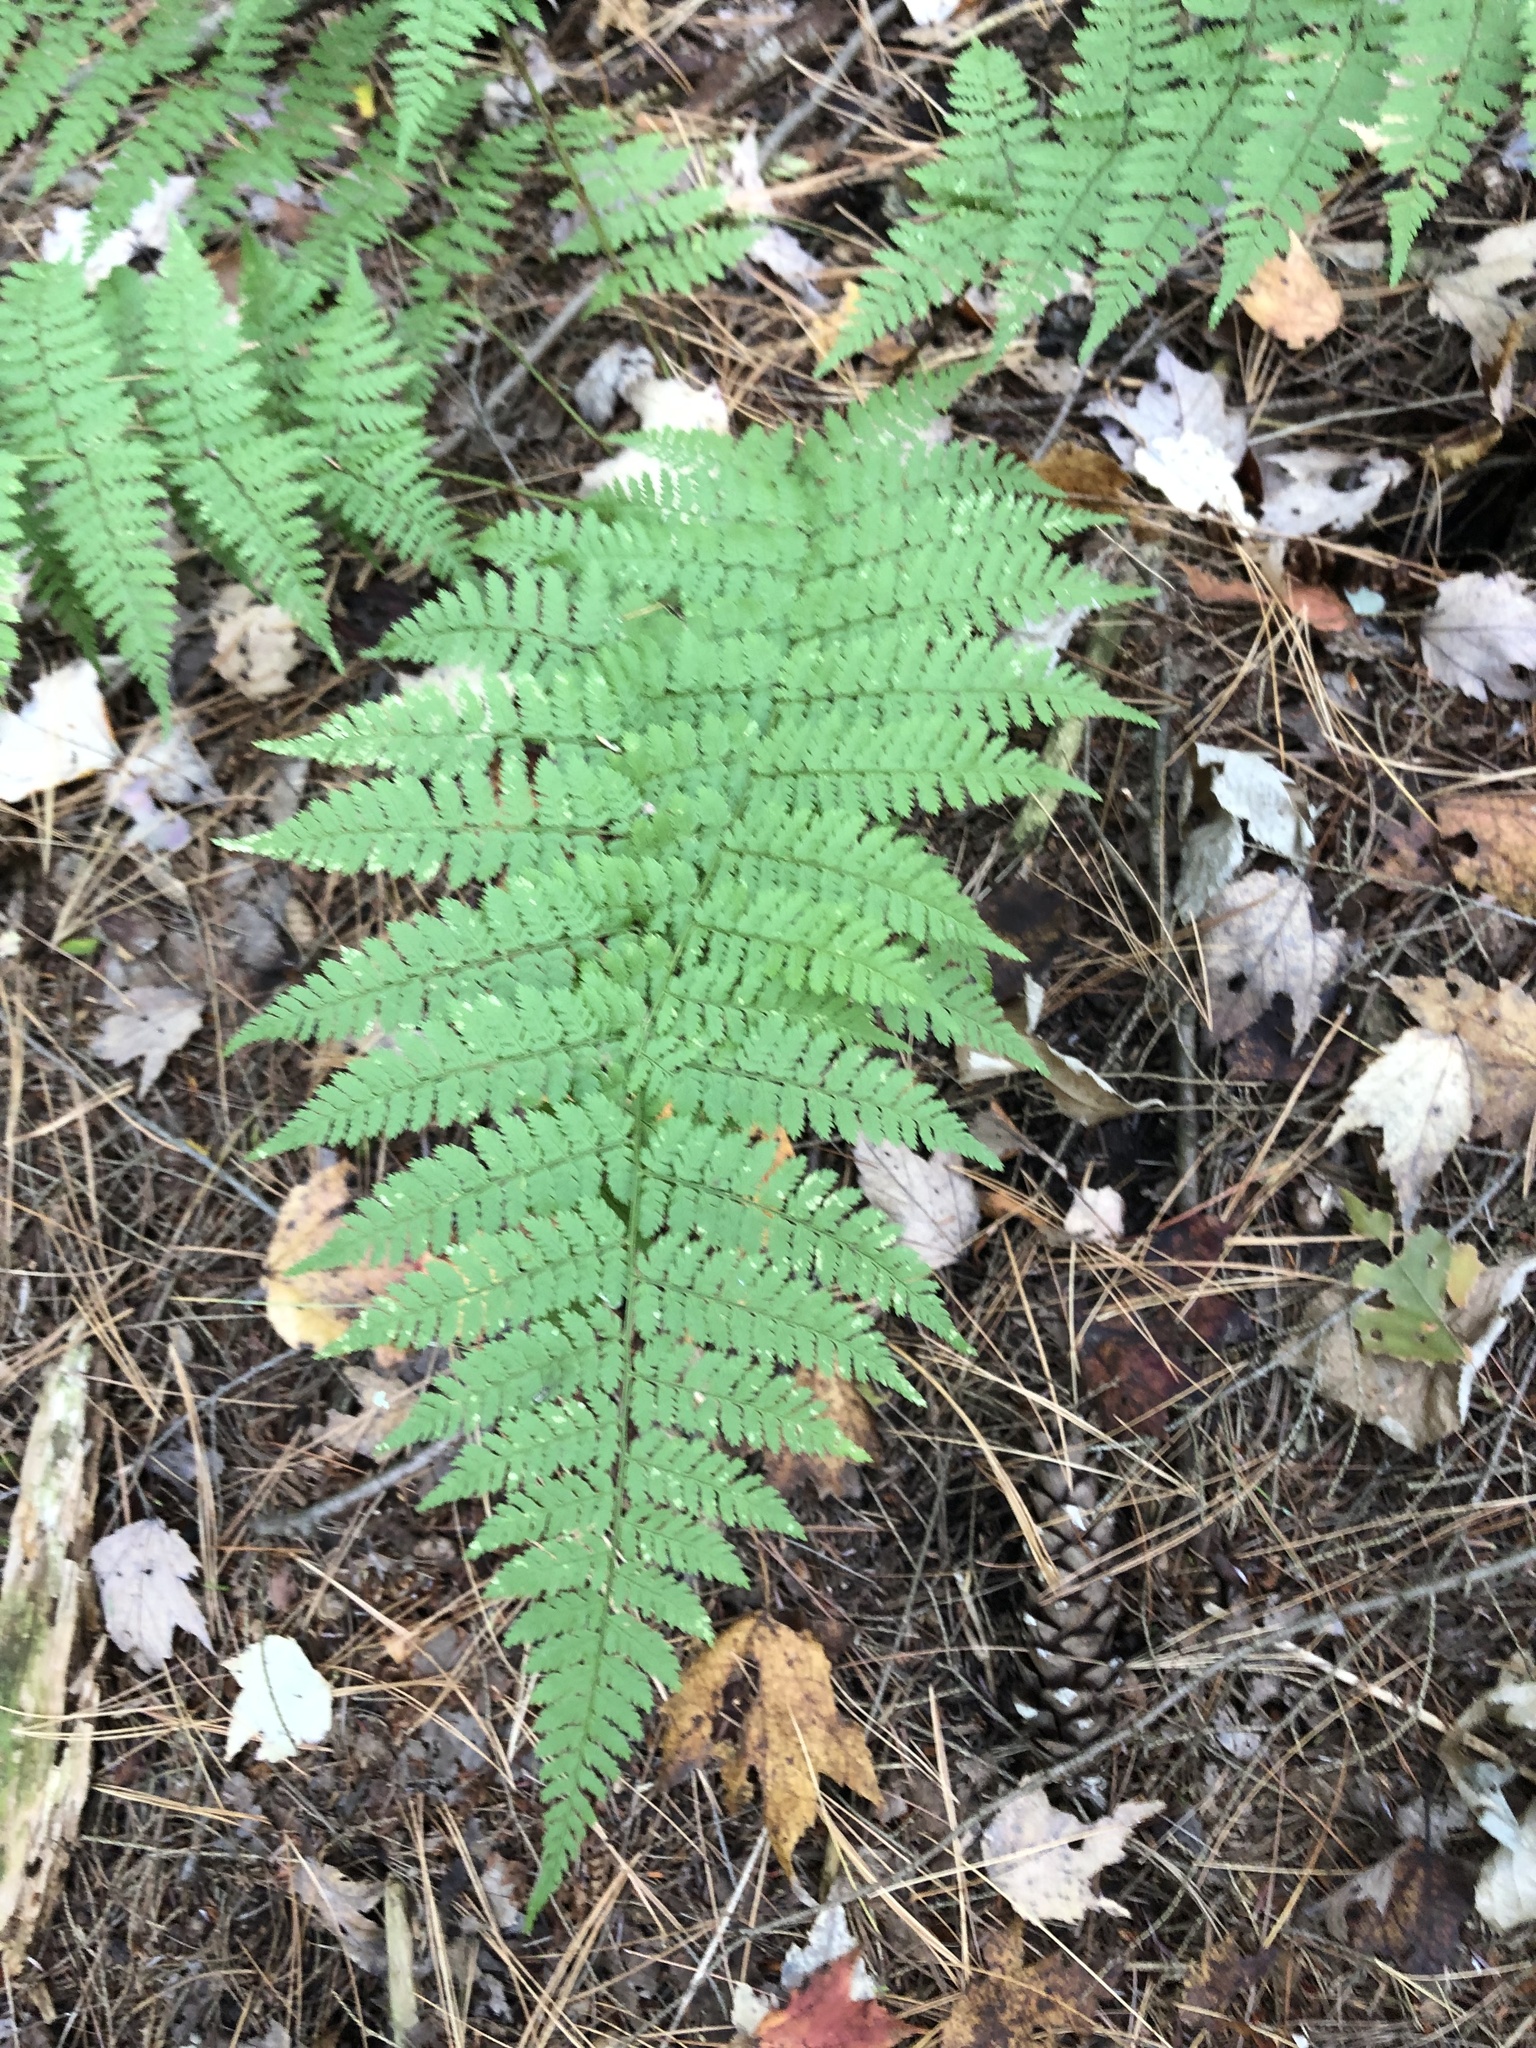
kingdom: Plantae
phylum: Tracheophyta
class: Polypodiopsida
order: Polypodiales
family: Dryopteridaceae
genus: Dryopteris
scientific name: Dryopteris intermedia
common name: Evergreen wood fern
